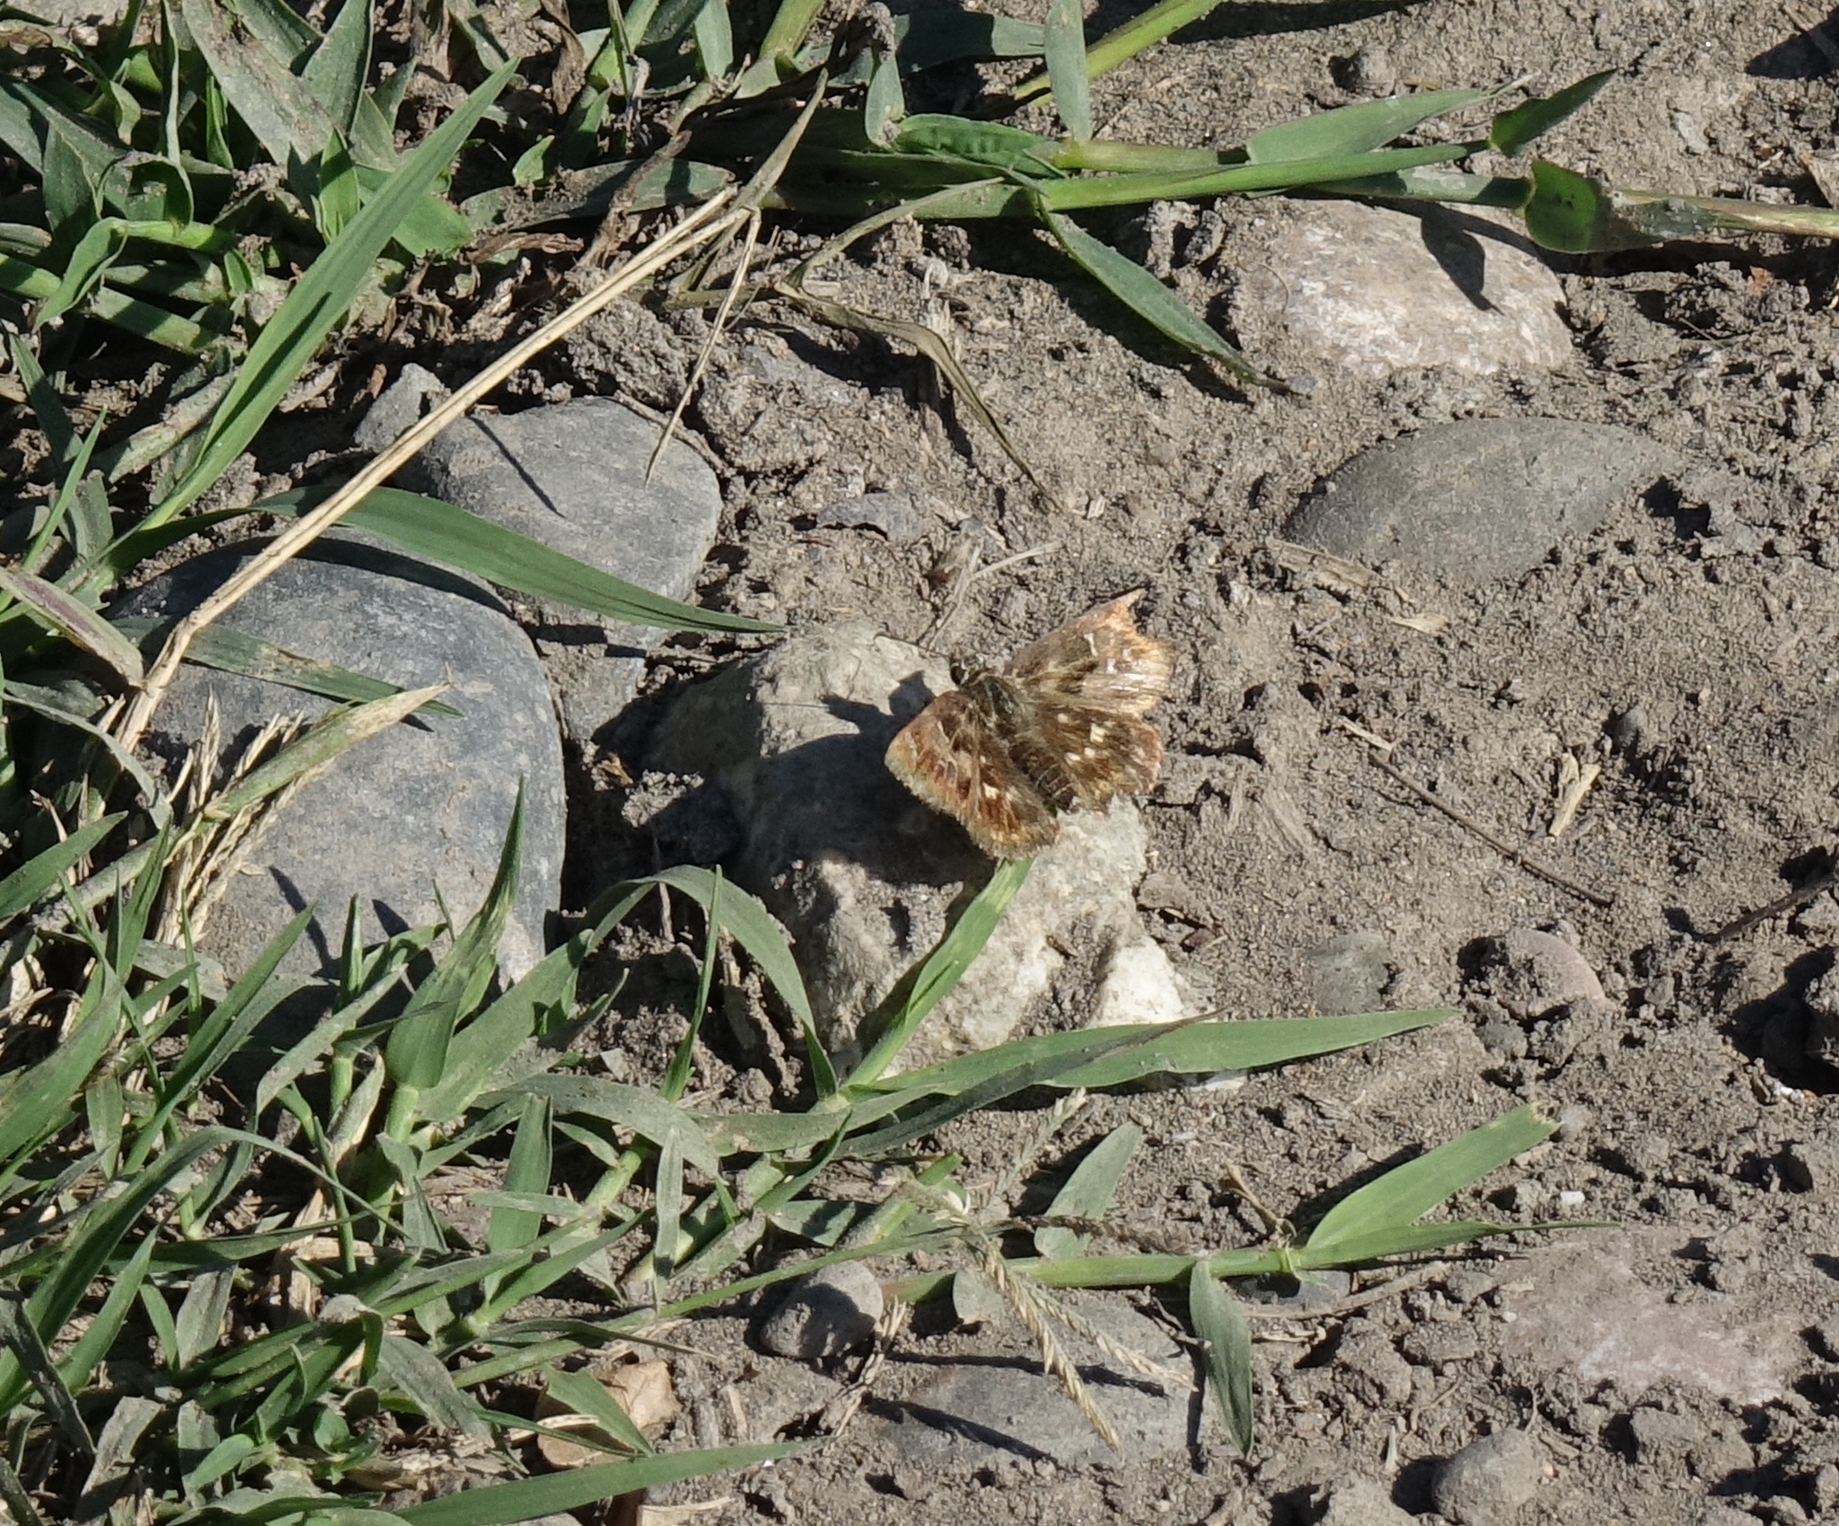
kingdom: Animalia
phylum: Arthropoda
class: Insecta
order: Lepidoptera
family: Hesperiidae
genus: Carcharodus
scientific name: Carcharodus alceae
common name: Mallow skipper
